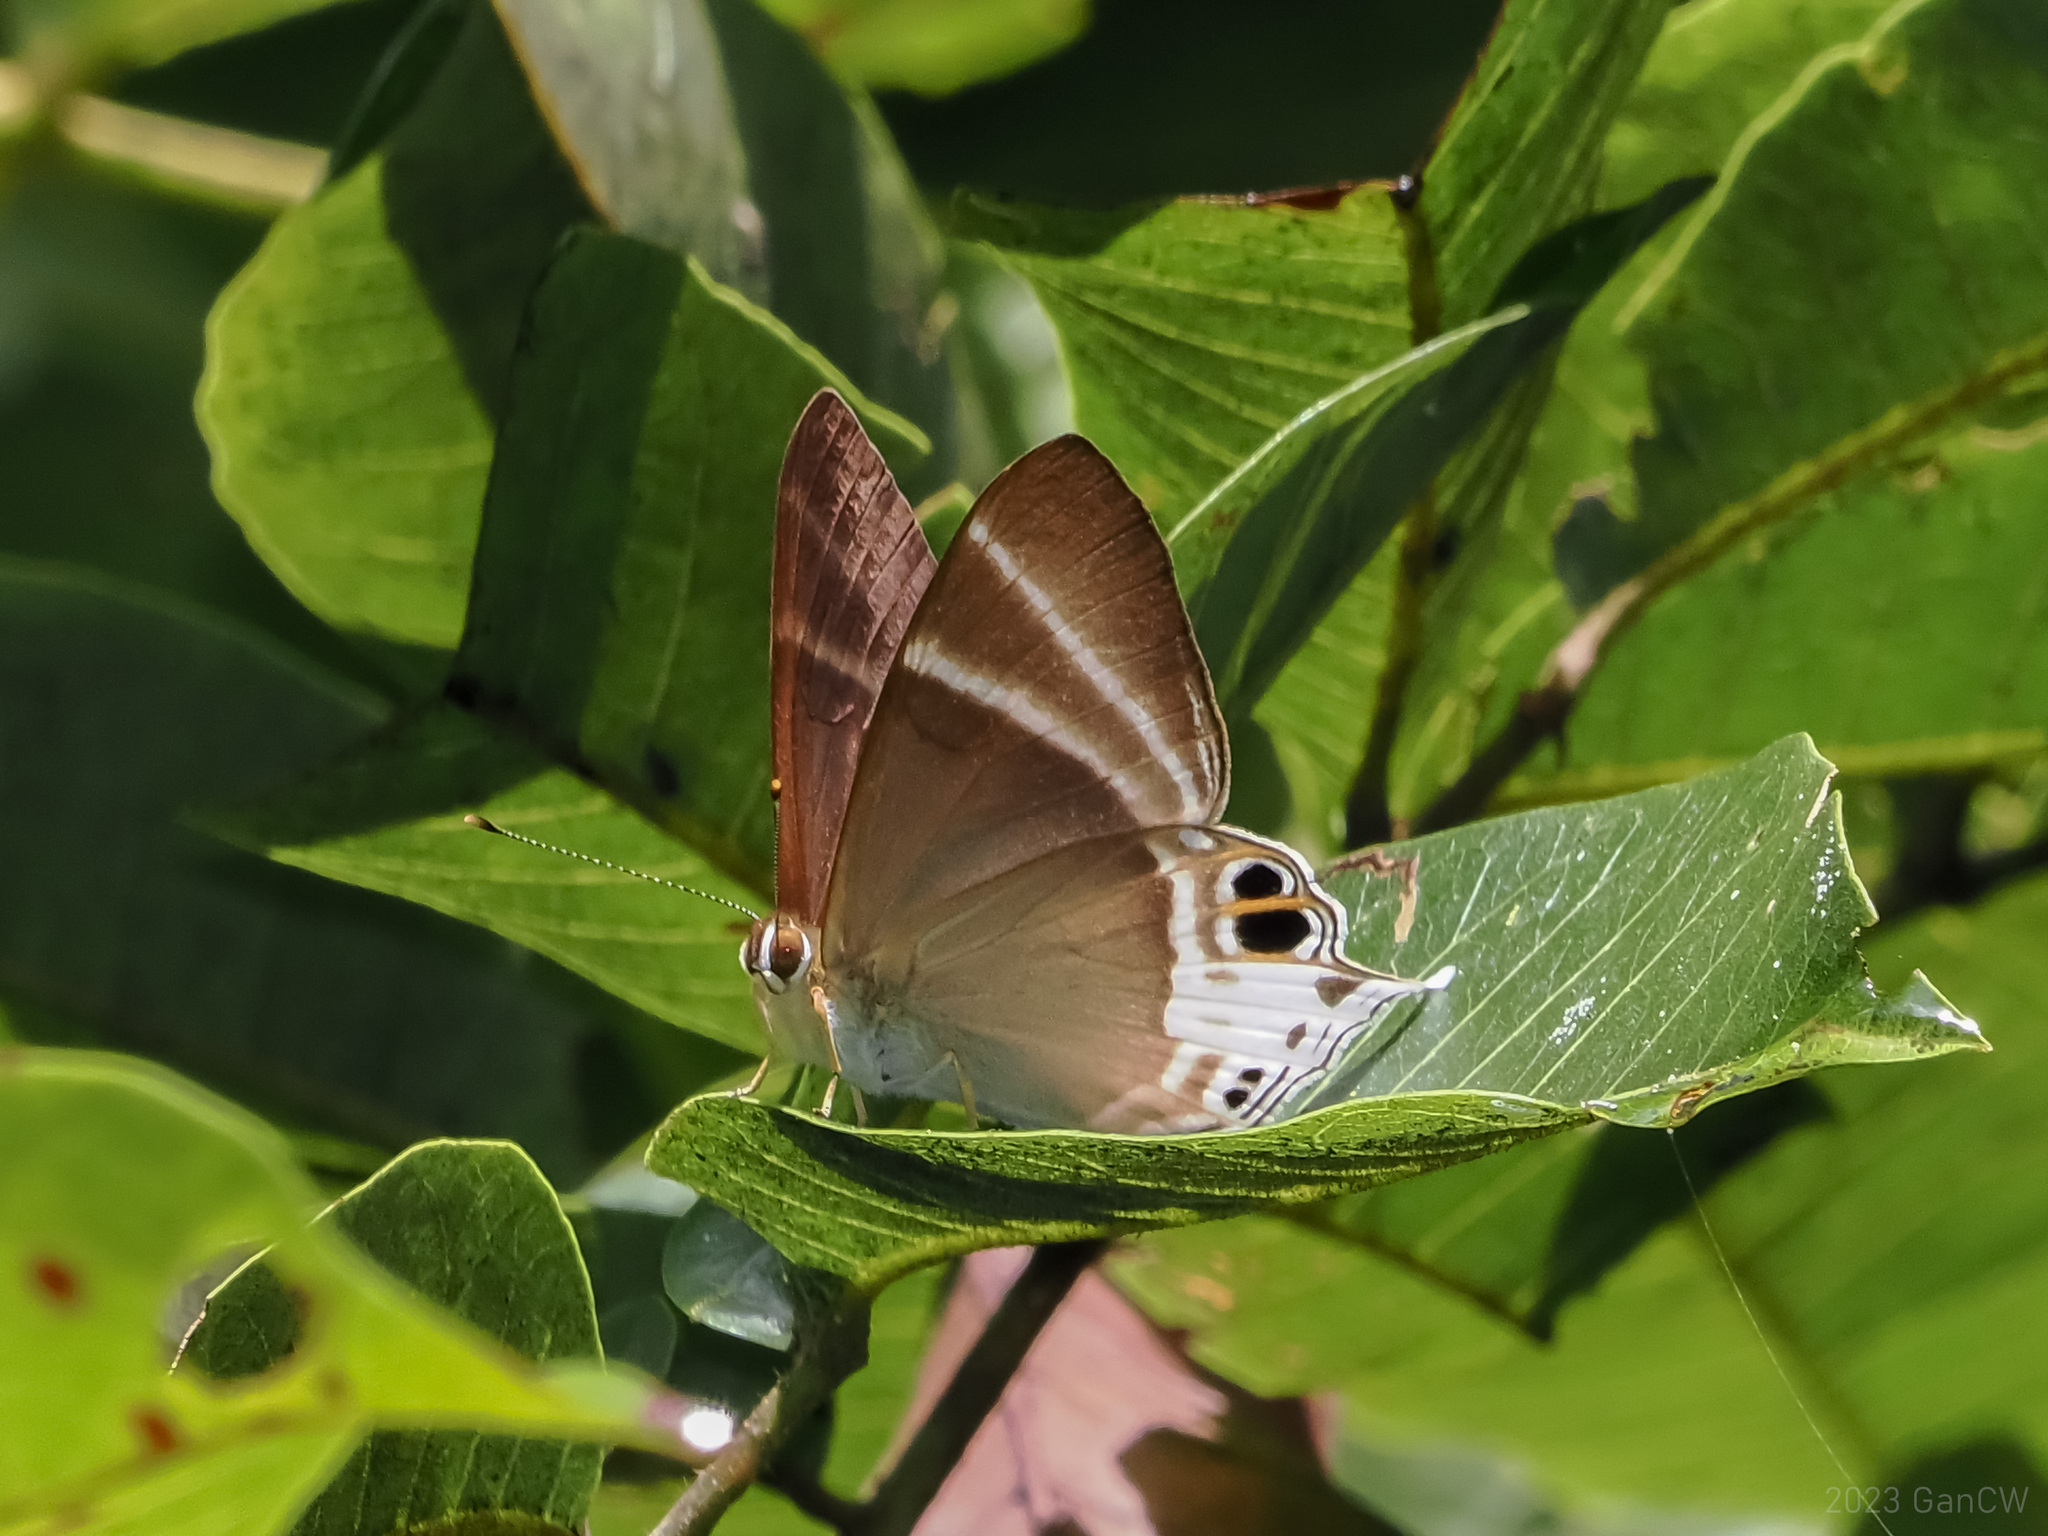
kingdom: Animalia
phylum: Arthropoda
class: Insecta
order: Lepidoptera
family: Riodinidae
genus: Archigenes
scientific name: Archigenes aita
